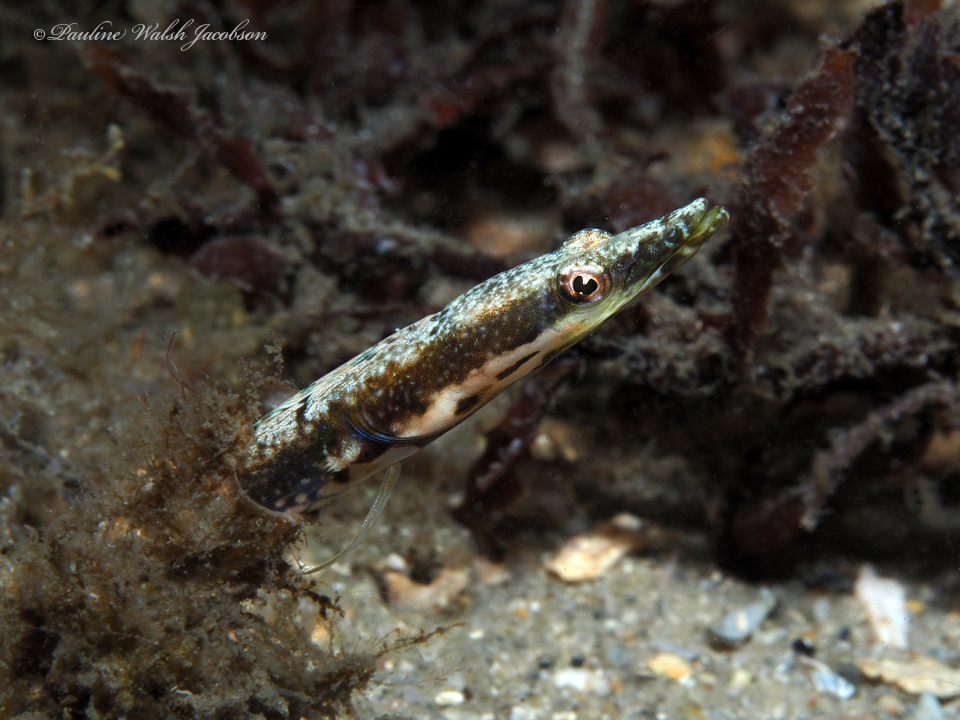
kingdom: Animalia
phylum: Chordata
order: Perciformes
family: Chaenopsidae
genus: Chaenopsis
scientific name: Chaenopsis ocellata
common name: Bluethroat pikeblenny
